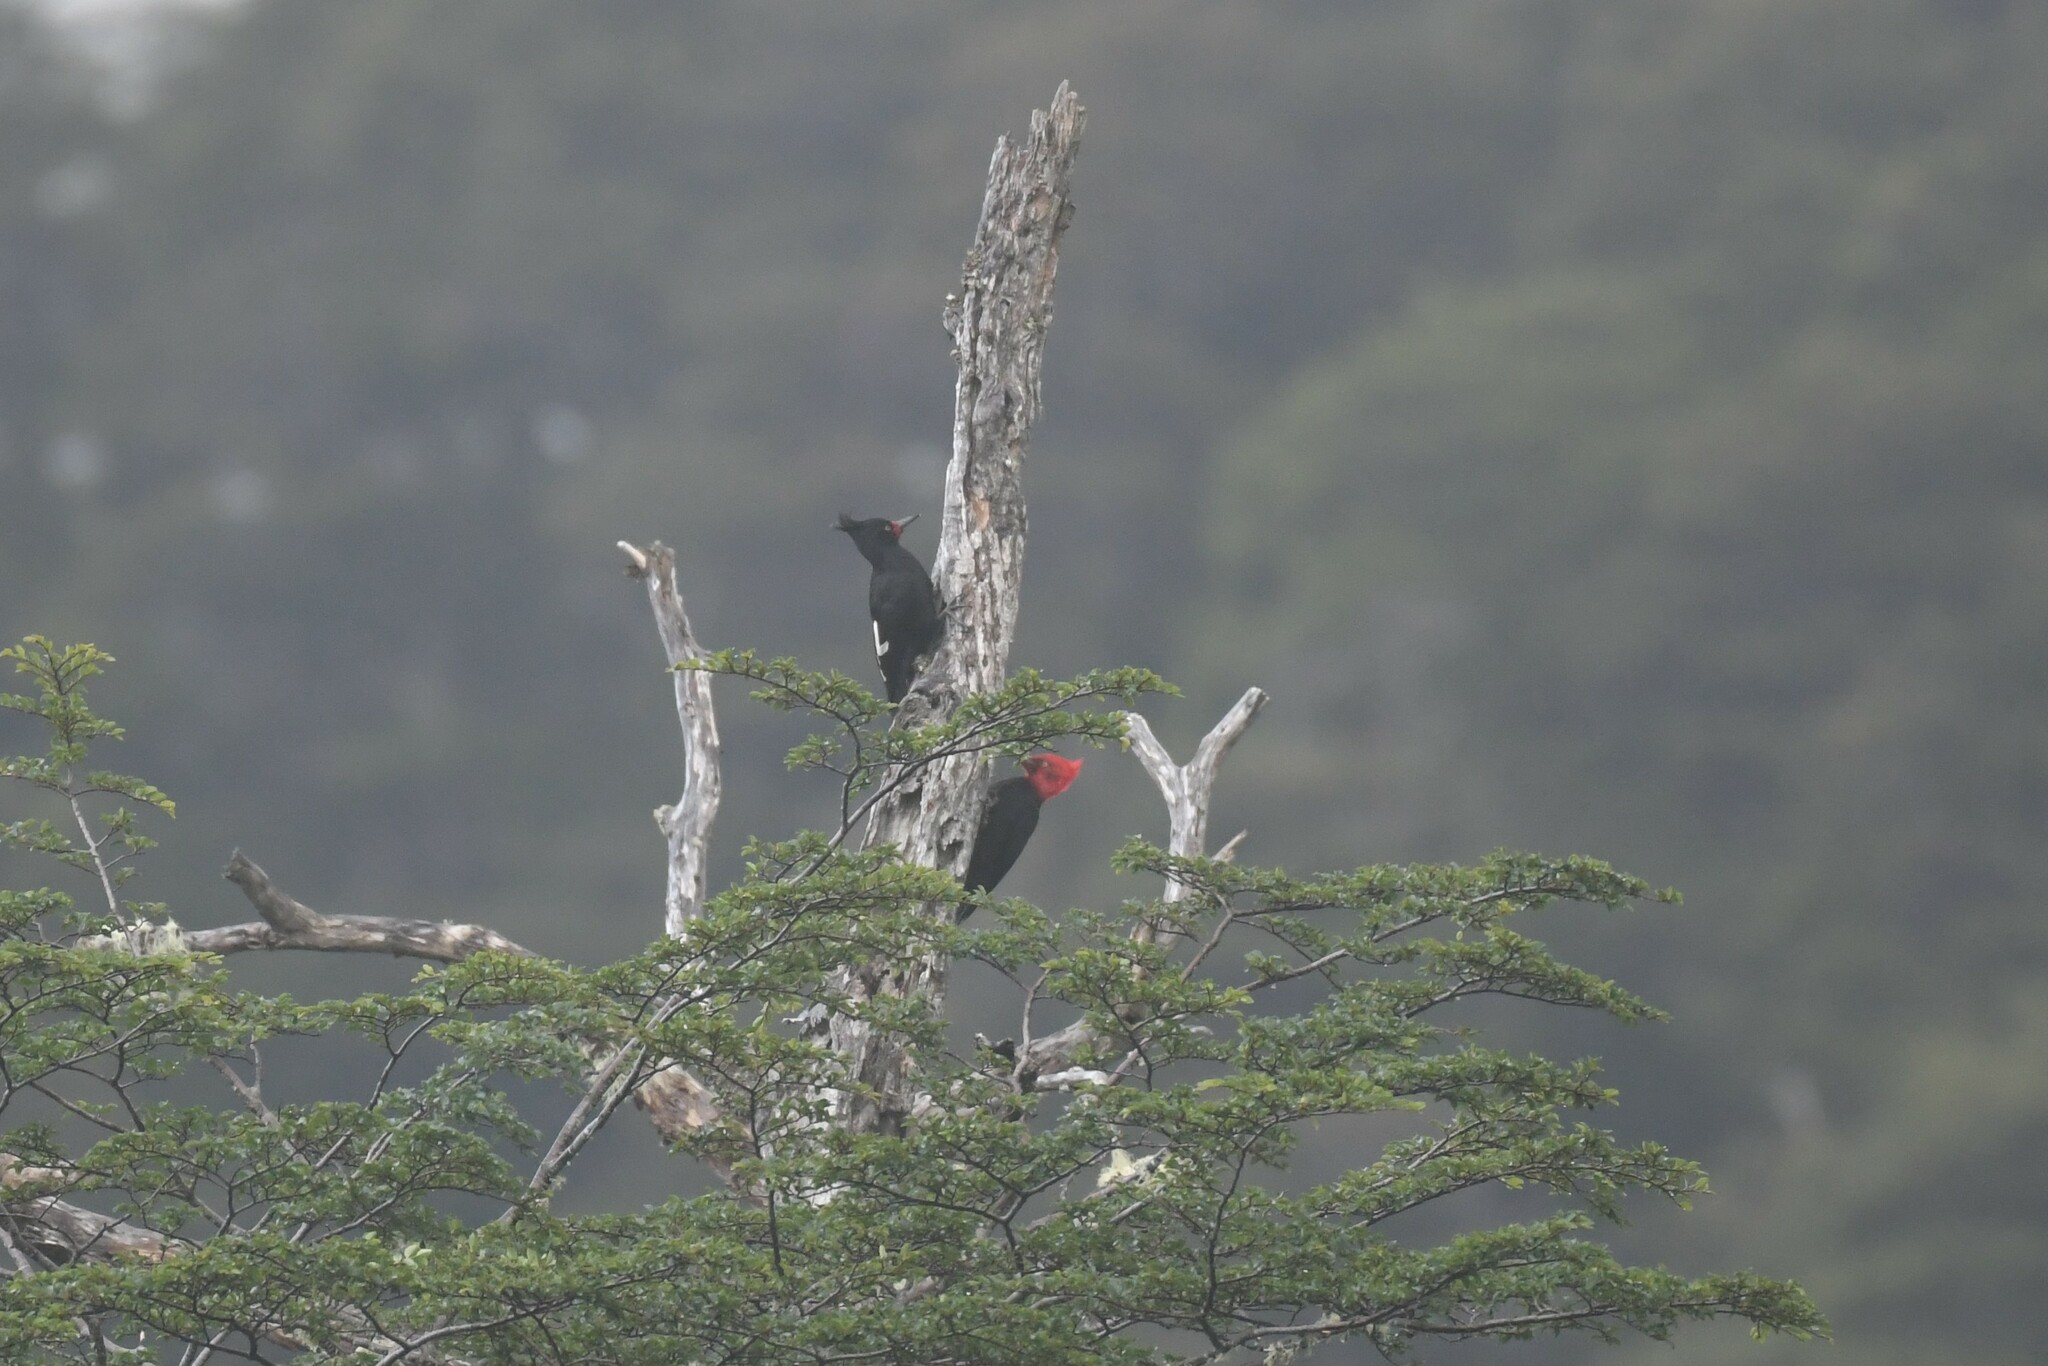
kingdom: Animalia
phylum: Chordata
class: Aves
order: Piciformes
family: Picidae
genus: Campephilus
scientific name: Campephilus magellanicus
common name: Magellanic woodpecker
